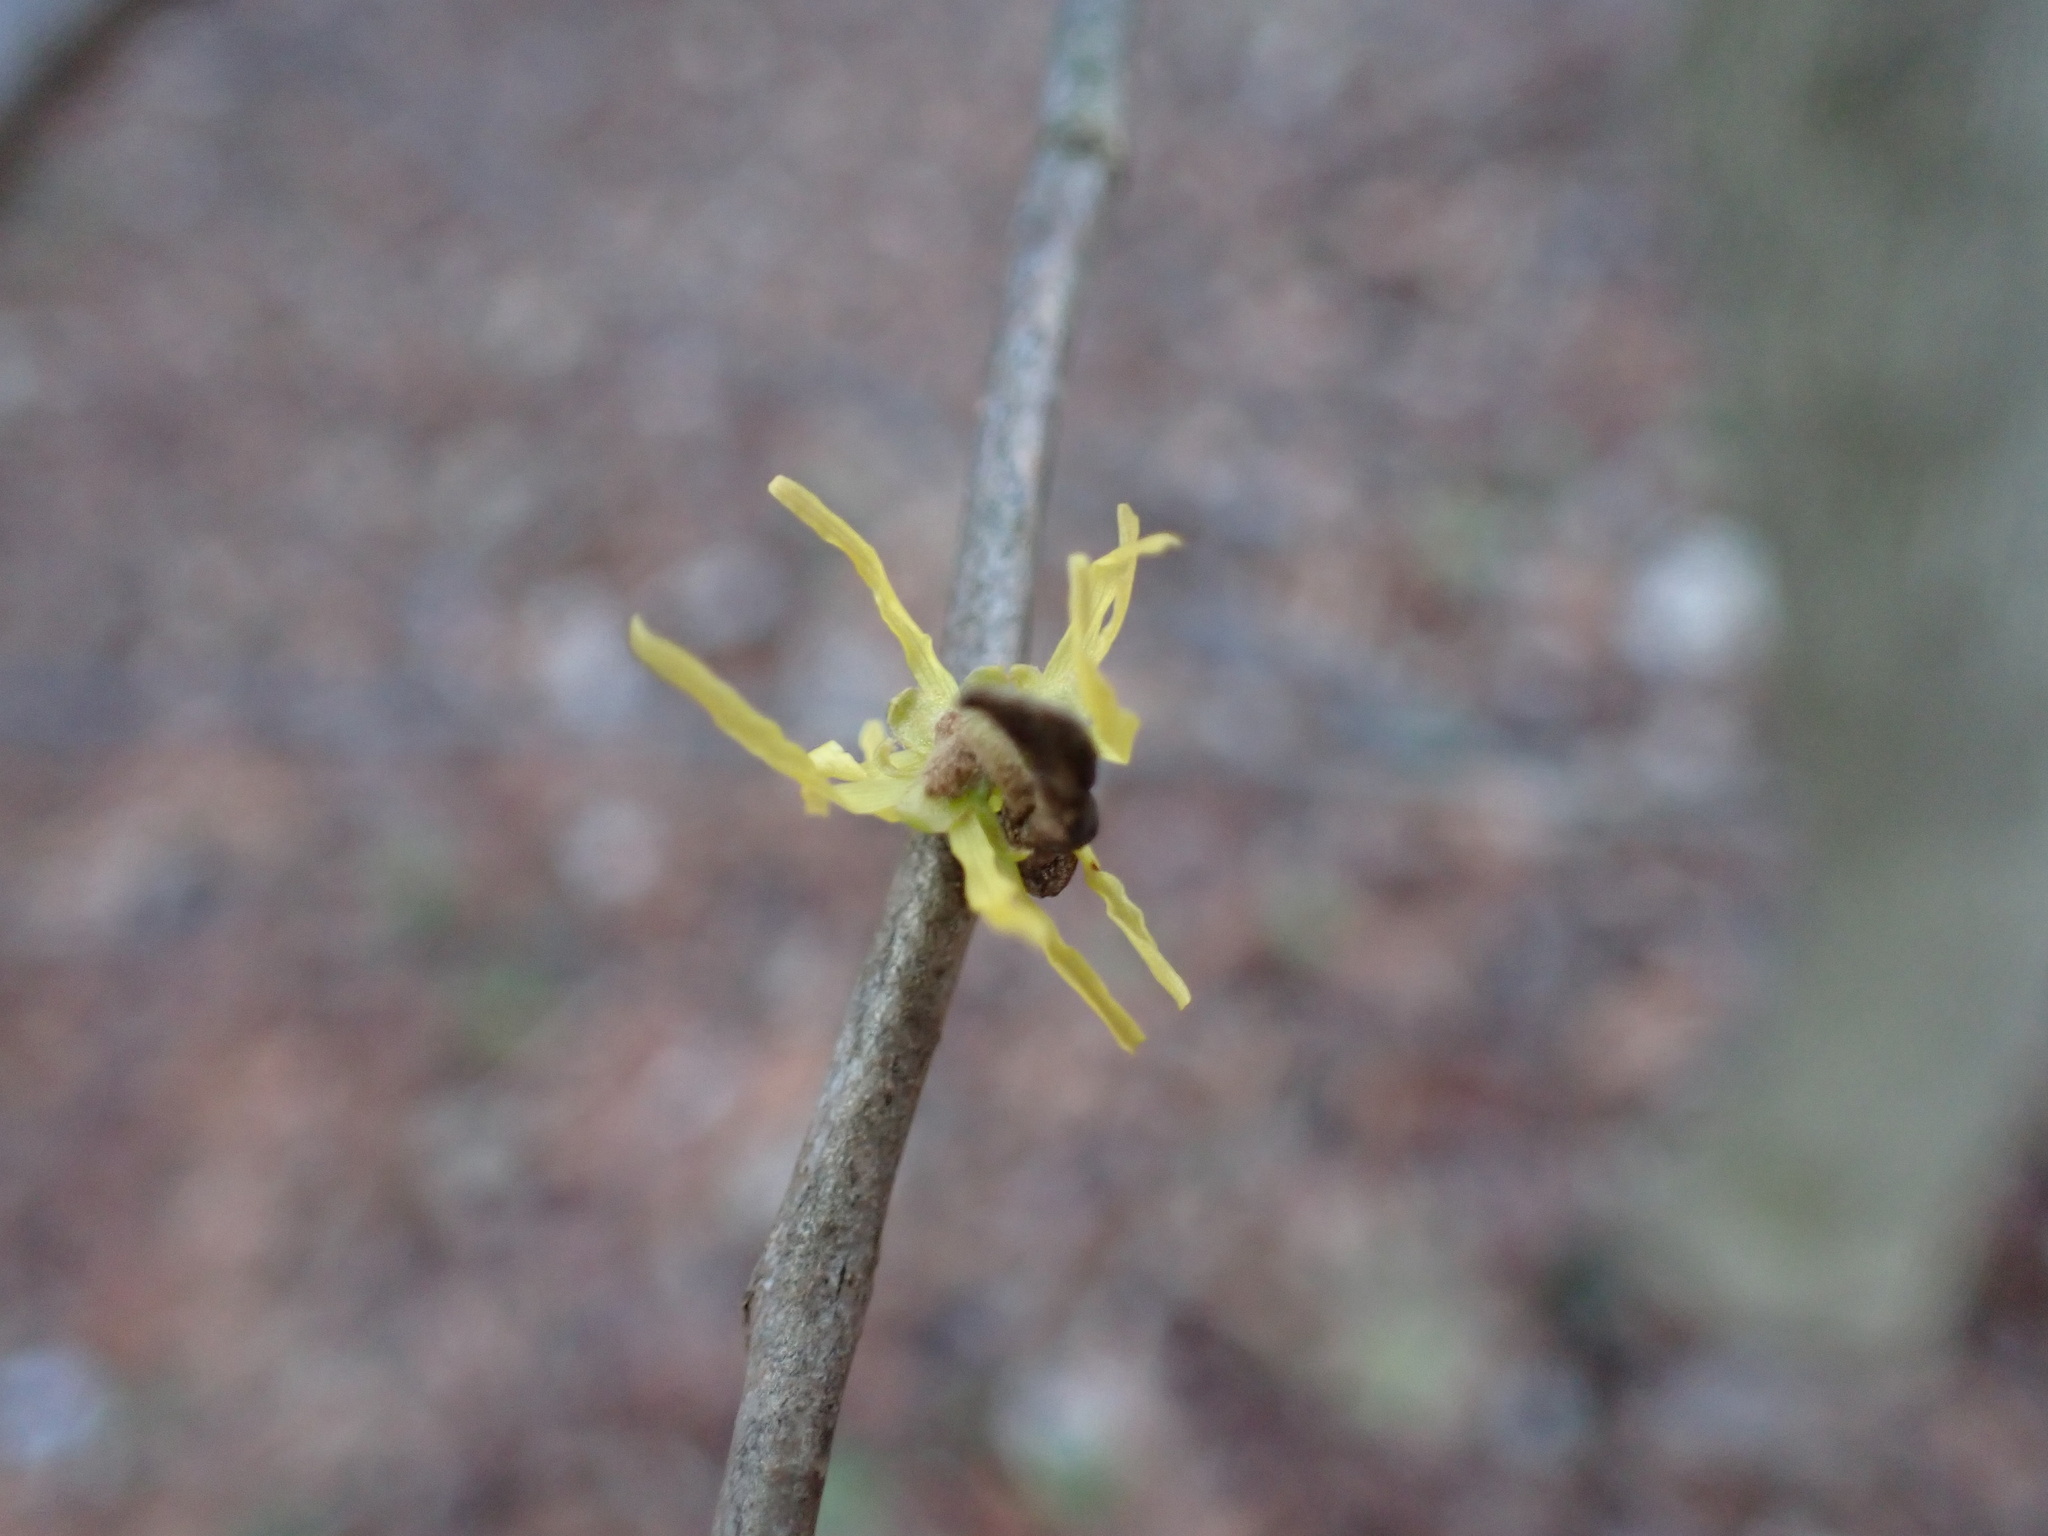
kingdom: Plantae
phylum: Tracheophyta
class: Magnoliopsida
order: Saxifragales
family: Hamamelidaceae
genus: Hamamelis
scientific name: Hamamelis virginiana
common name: Witch-hazel
